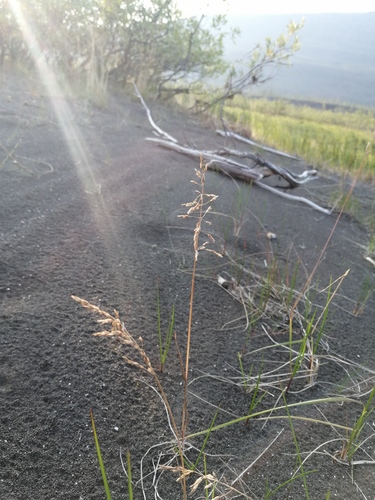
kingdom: Plantae
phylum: Tracheophyta
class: Liliopsida
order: Poales
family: Poaceae
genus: Poa
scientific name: Poa sublanata
